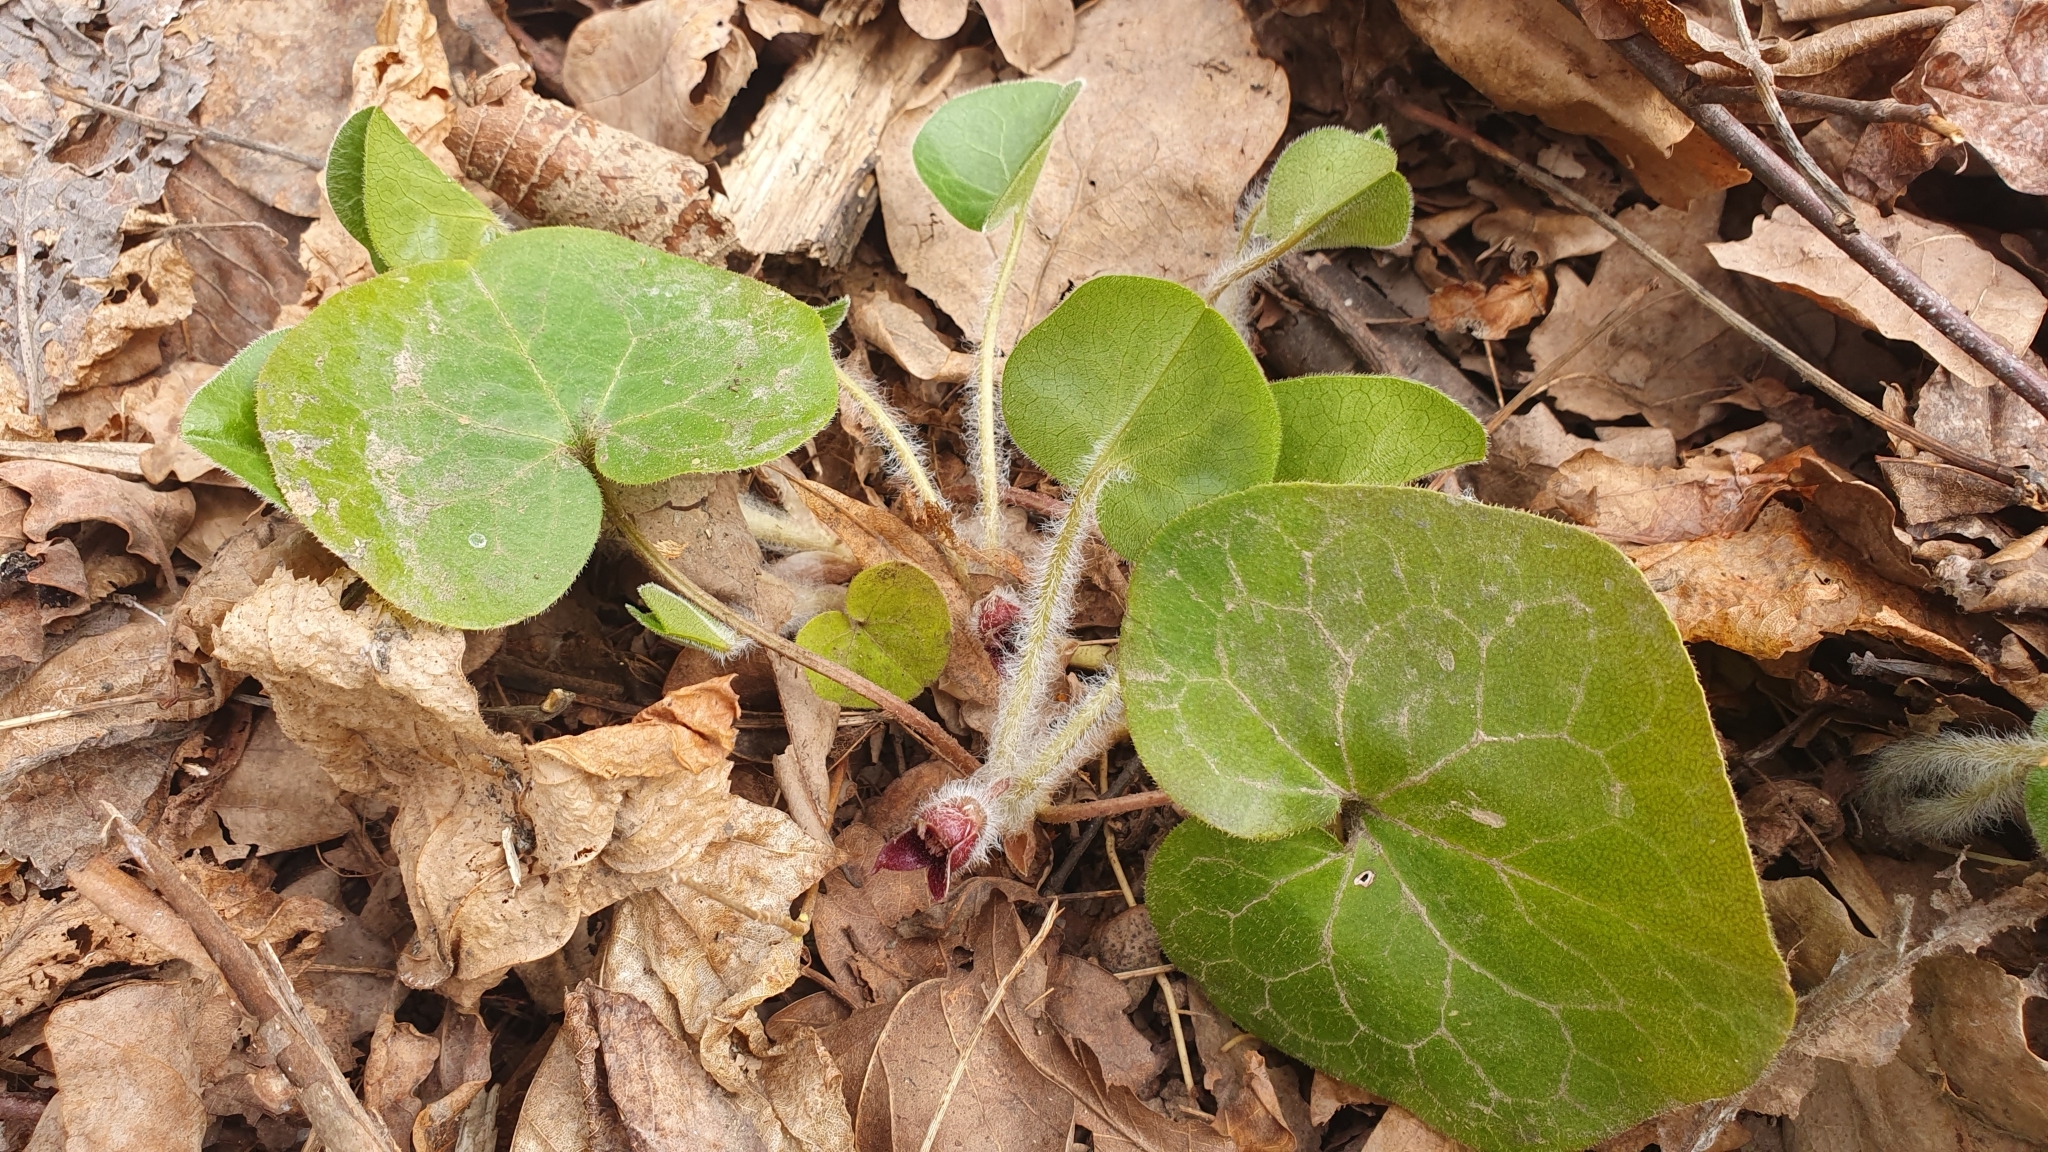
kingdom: Plantae
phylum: Tracheophyta
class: Magnoliopsida
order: Piperales
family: Aristolochiaceae
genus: Asarum
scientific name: Asarum europaeum
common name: Asarabacca
